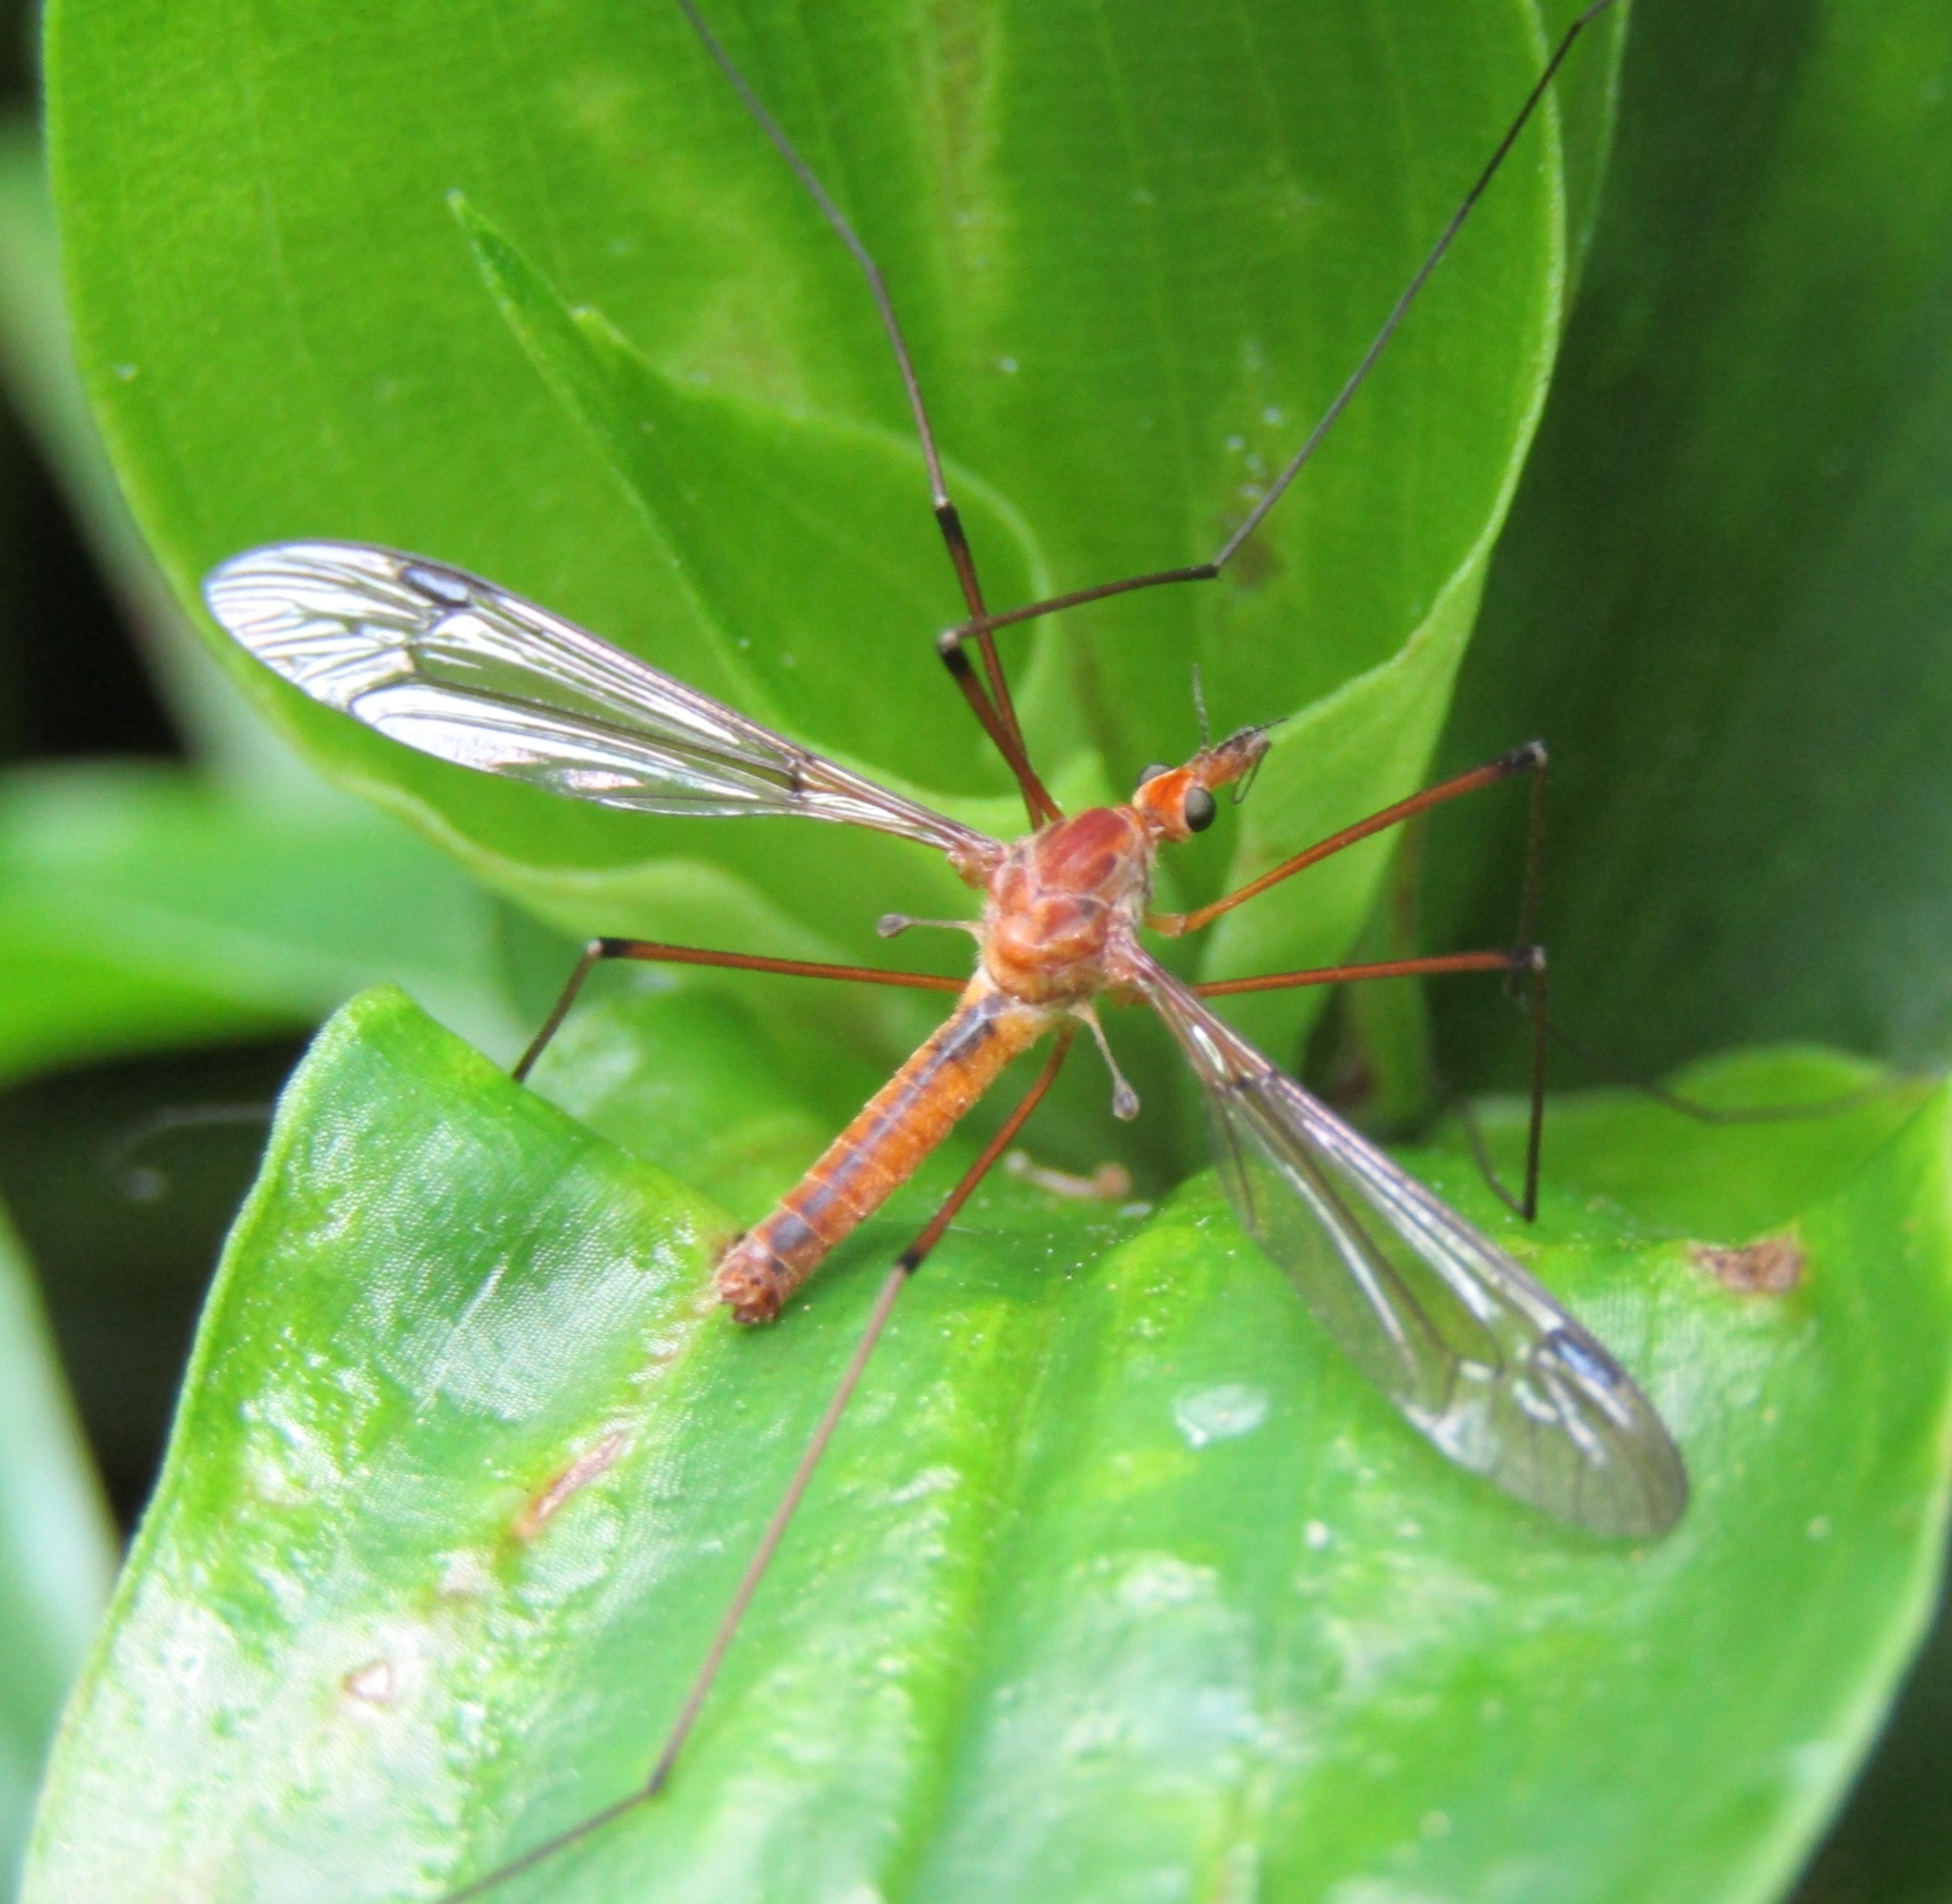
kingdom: Animalia
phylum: Arthropoda
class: Insecta
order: Diptera
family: Tipulidae
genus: Leptotarsus
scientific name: Leptotarsus dichroithorax
